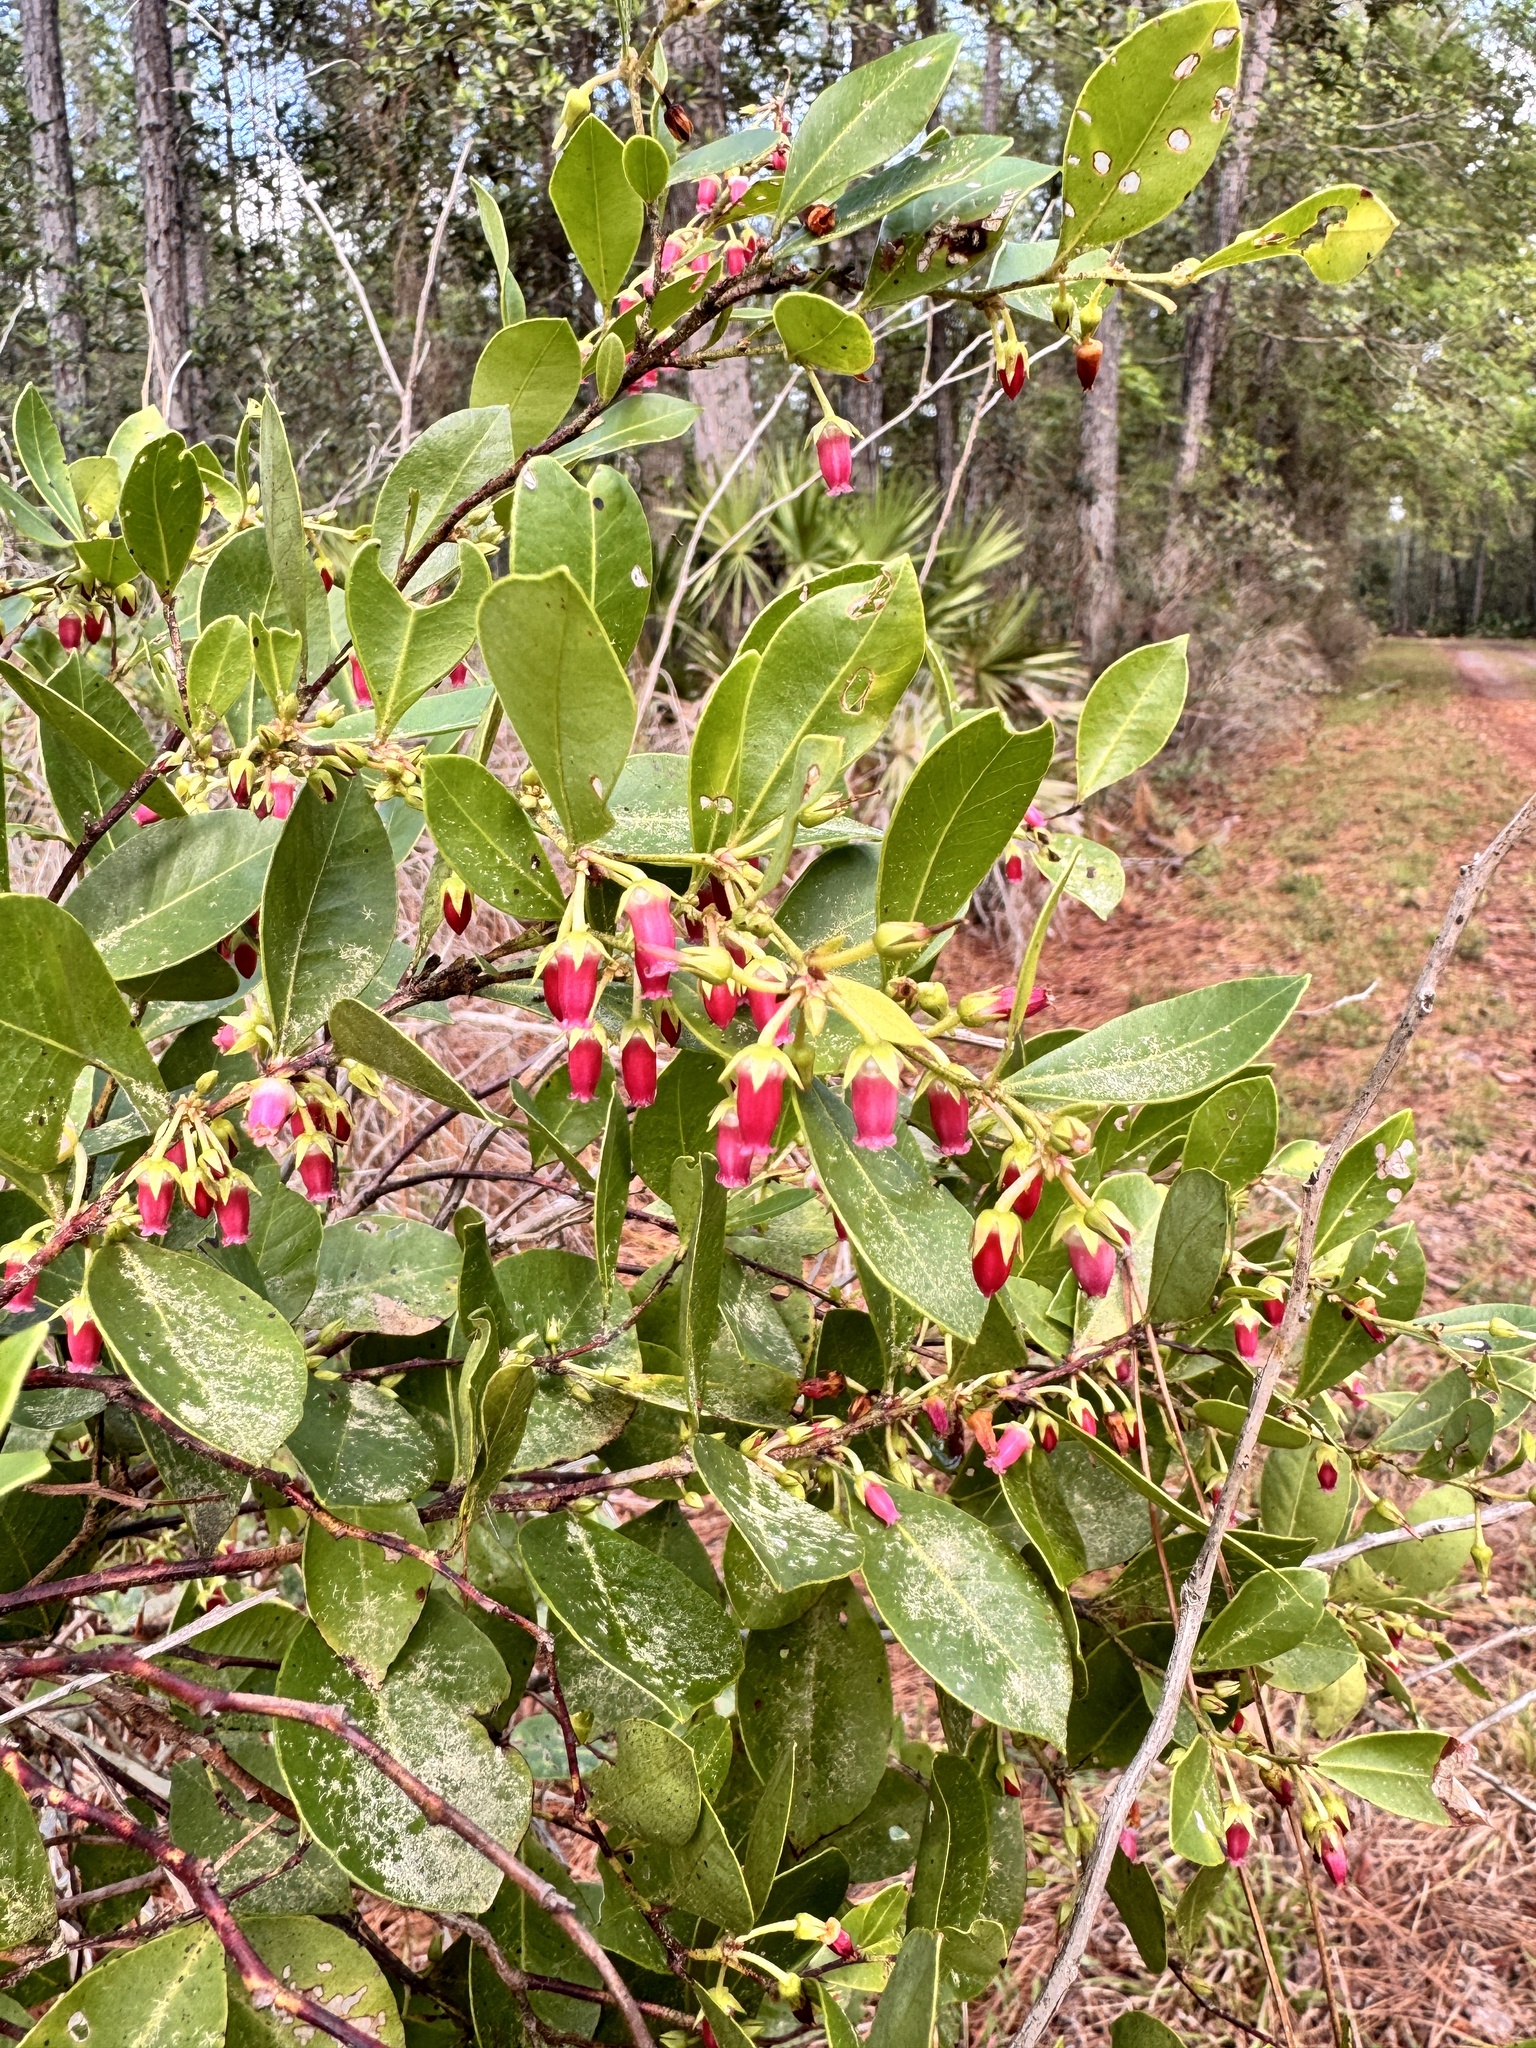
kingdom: Plantae
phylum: Tracheophyta
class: Magnoliopsida
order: Ericales
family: Ericaceae
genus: Lyonia
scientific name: Lyonia lucida
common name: Fetterbush
